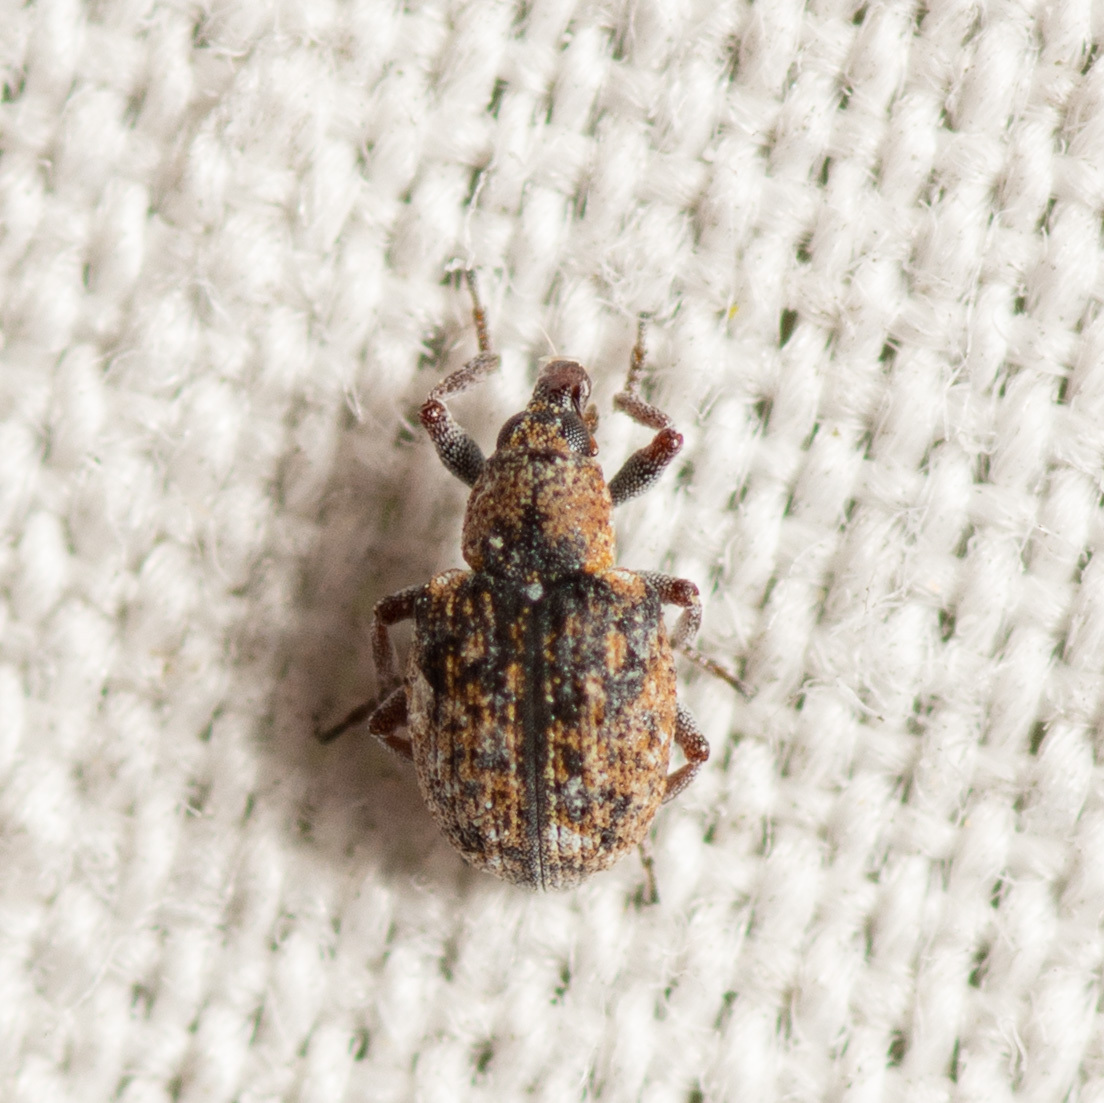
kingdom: Animalia
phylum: Arthropoda
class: Insecta
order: Coleoptera
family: Brachyceridae
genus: Stenopelmus
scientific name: Stenopelmus rufinasus
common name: Azolla weevil
